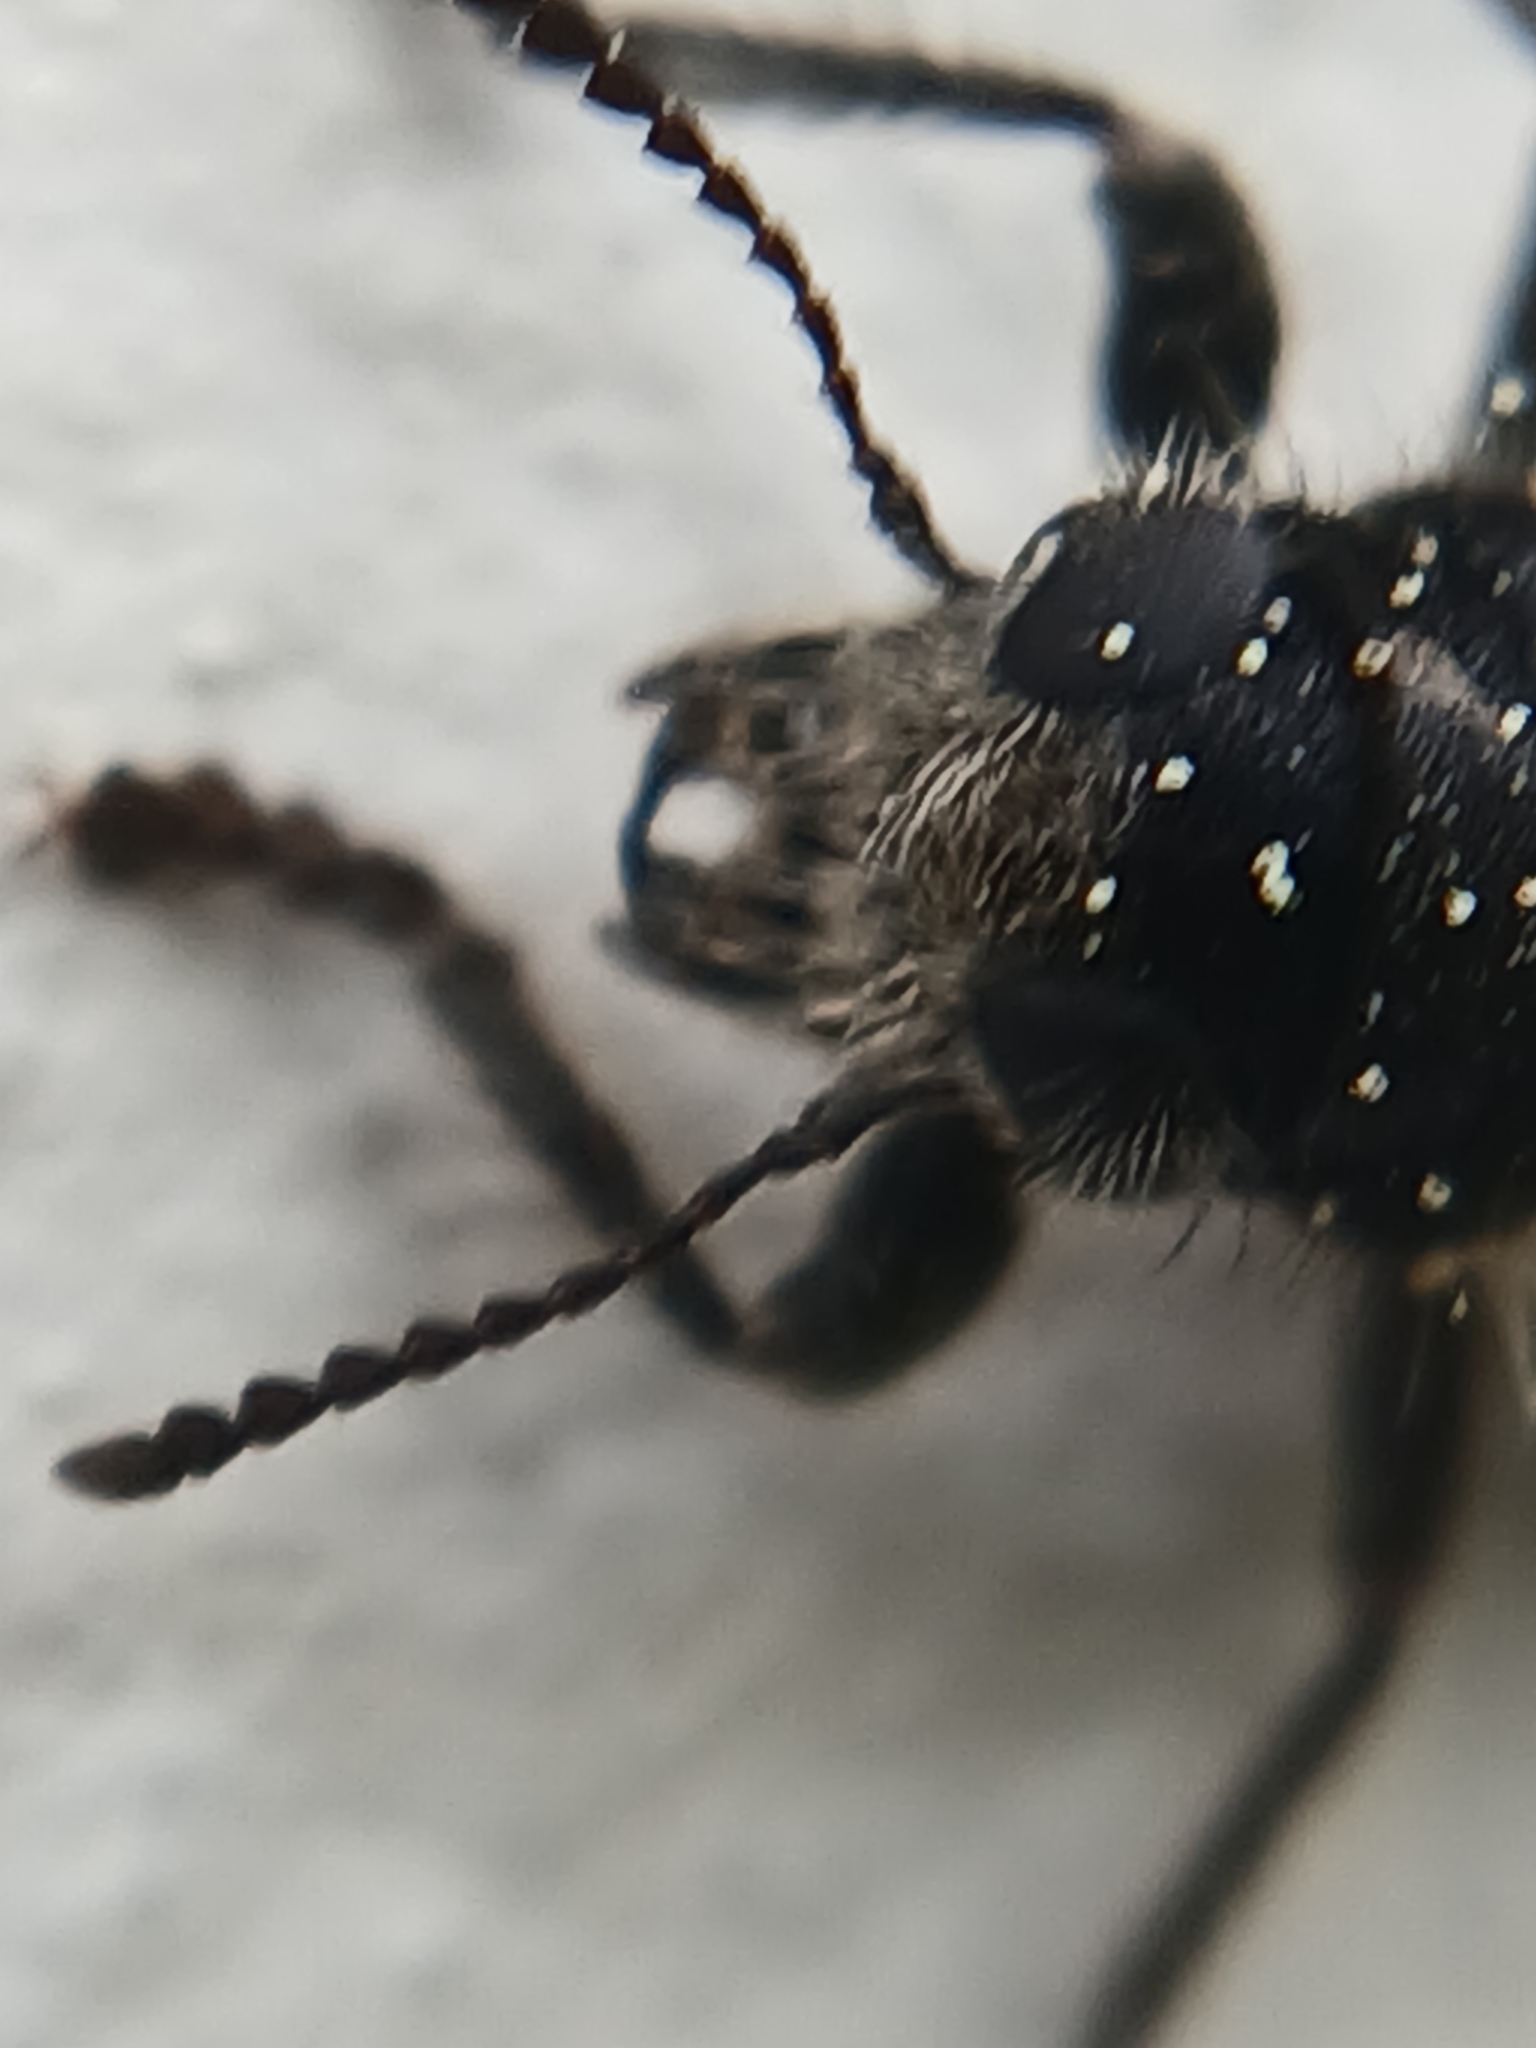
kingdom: Animalia
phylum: Arthropoda
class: Insecta
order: Coleoptera
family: Cleridae
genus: Clerus
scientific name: Clerus mutillarius
